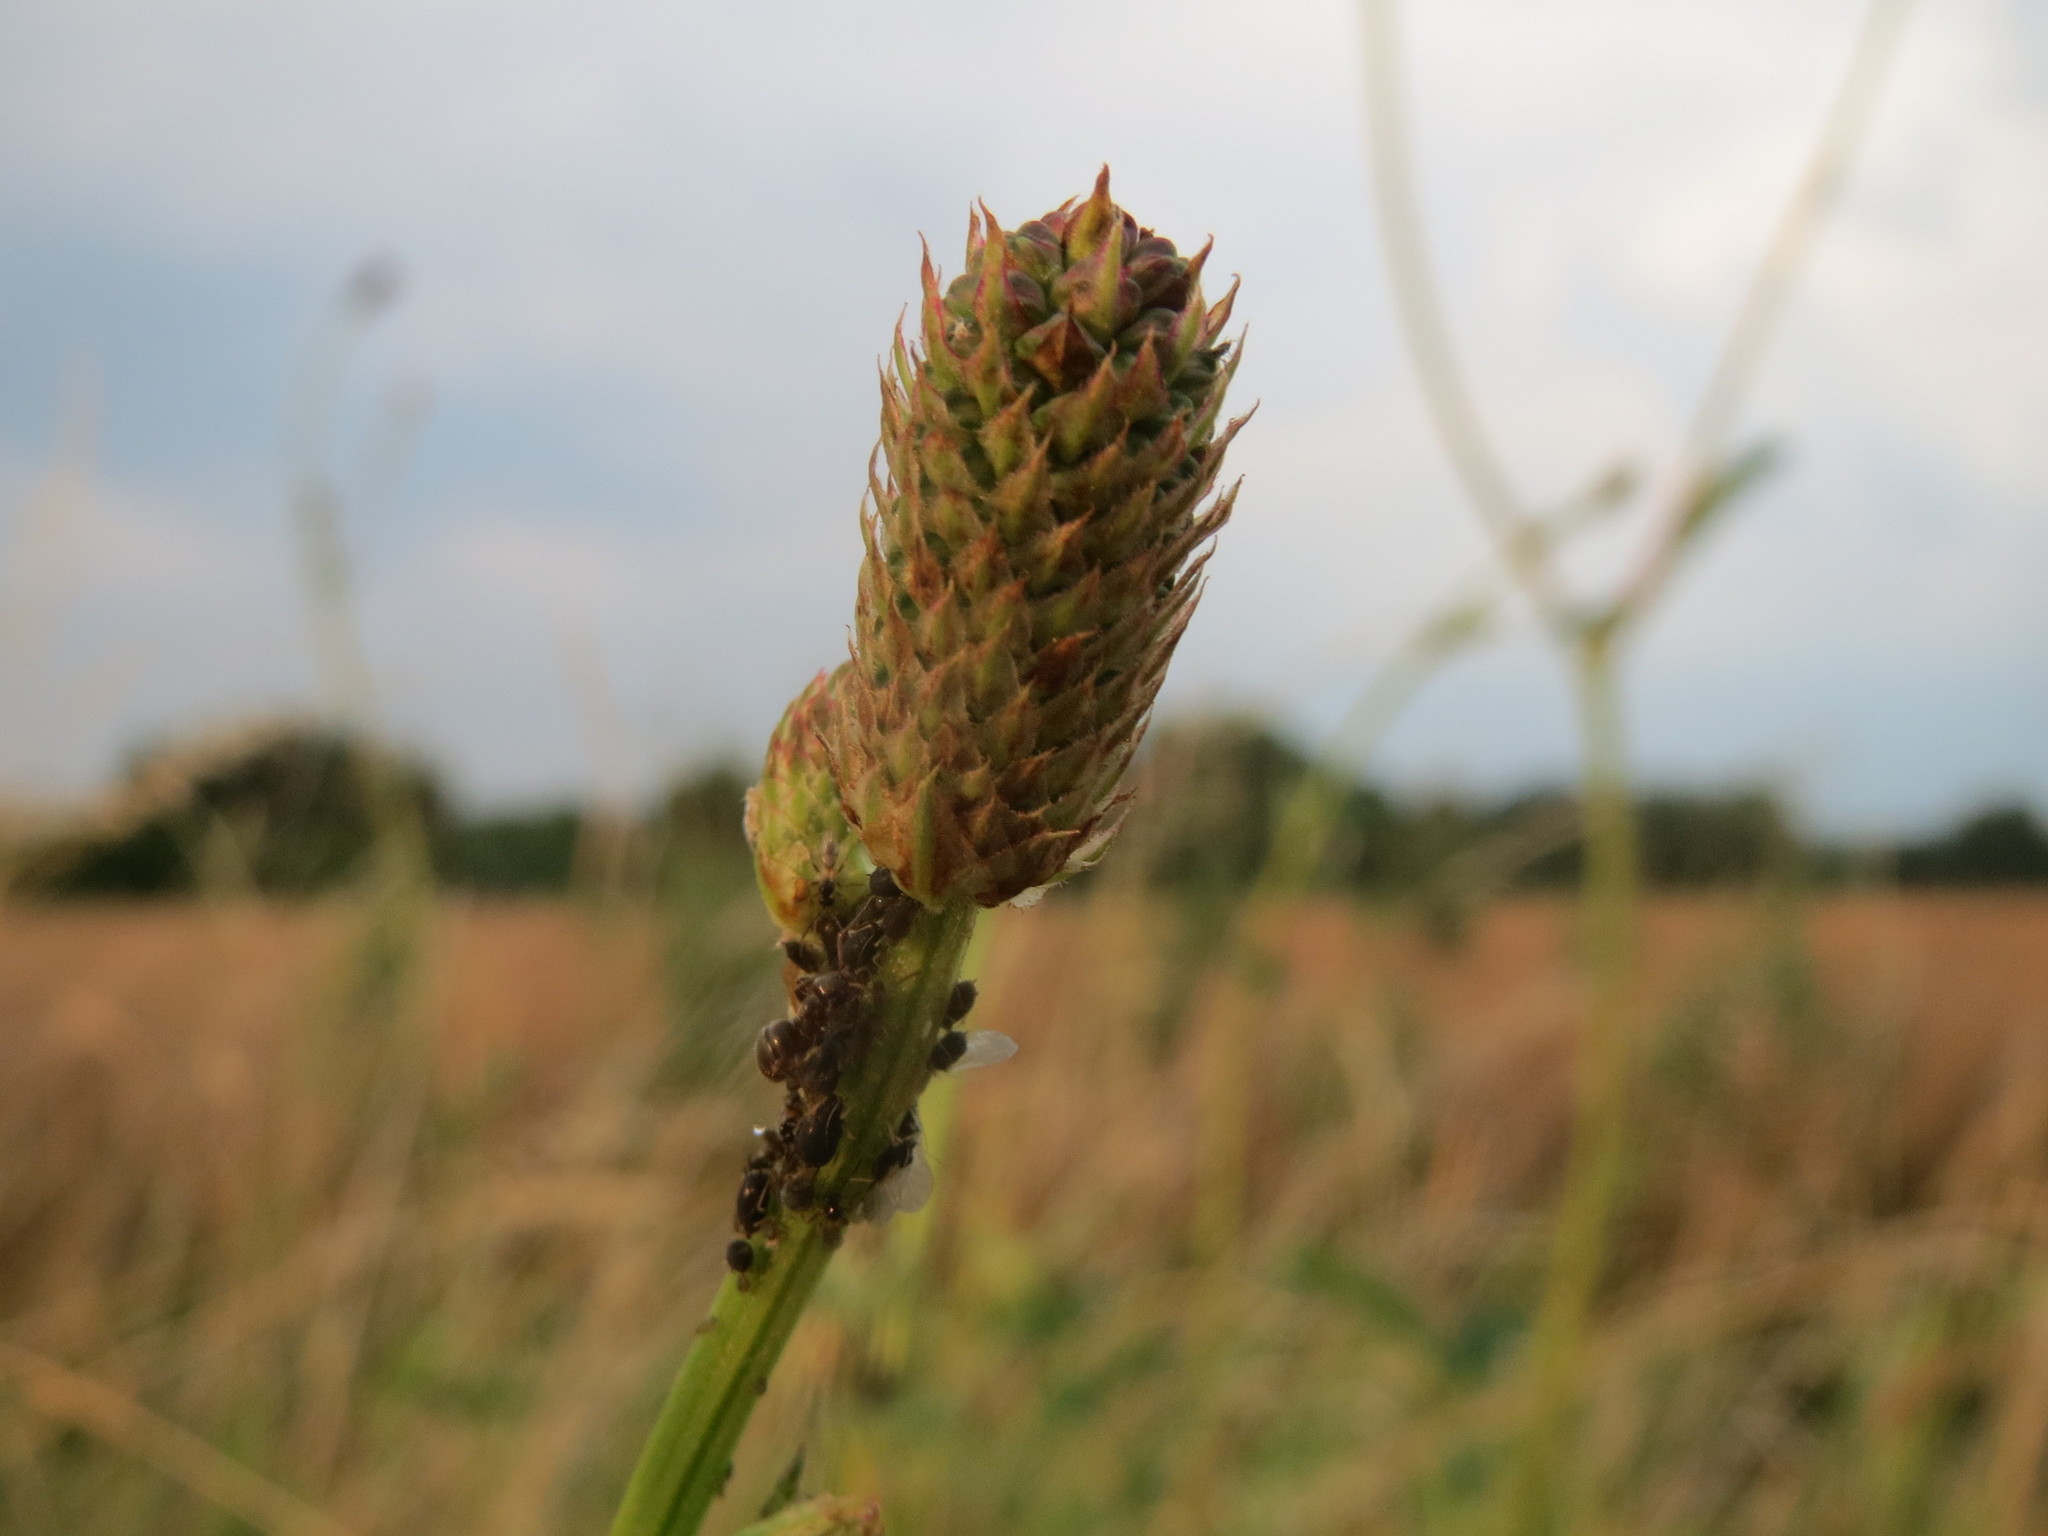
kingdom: Plantae
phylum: Tracheophyta
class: Magnoliopsida
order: Rosales
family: Rosaceae
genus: Sanguisorba
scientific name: Sanguisorba officinalis
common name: Great burnet
